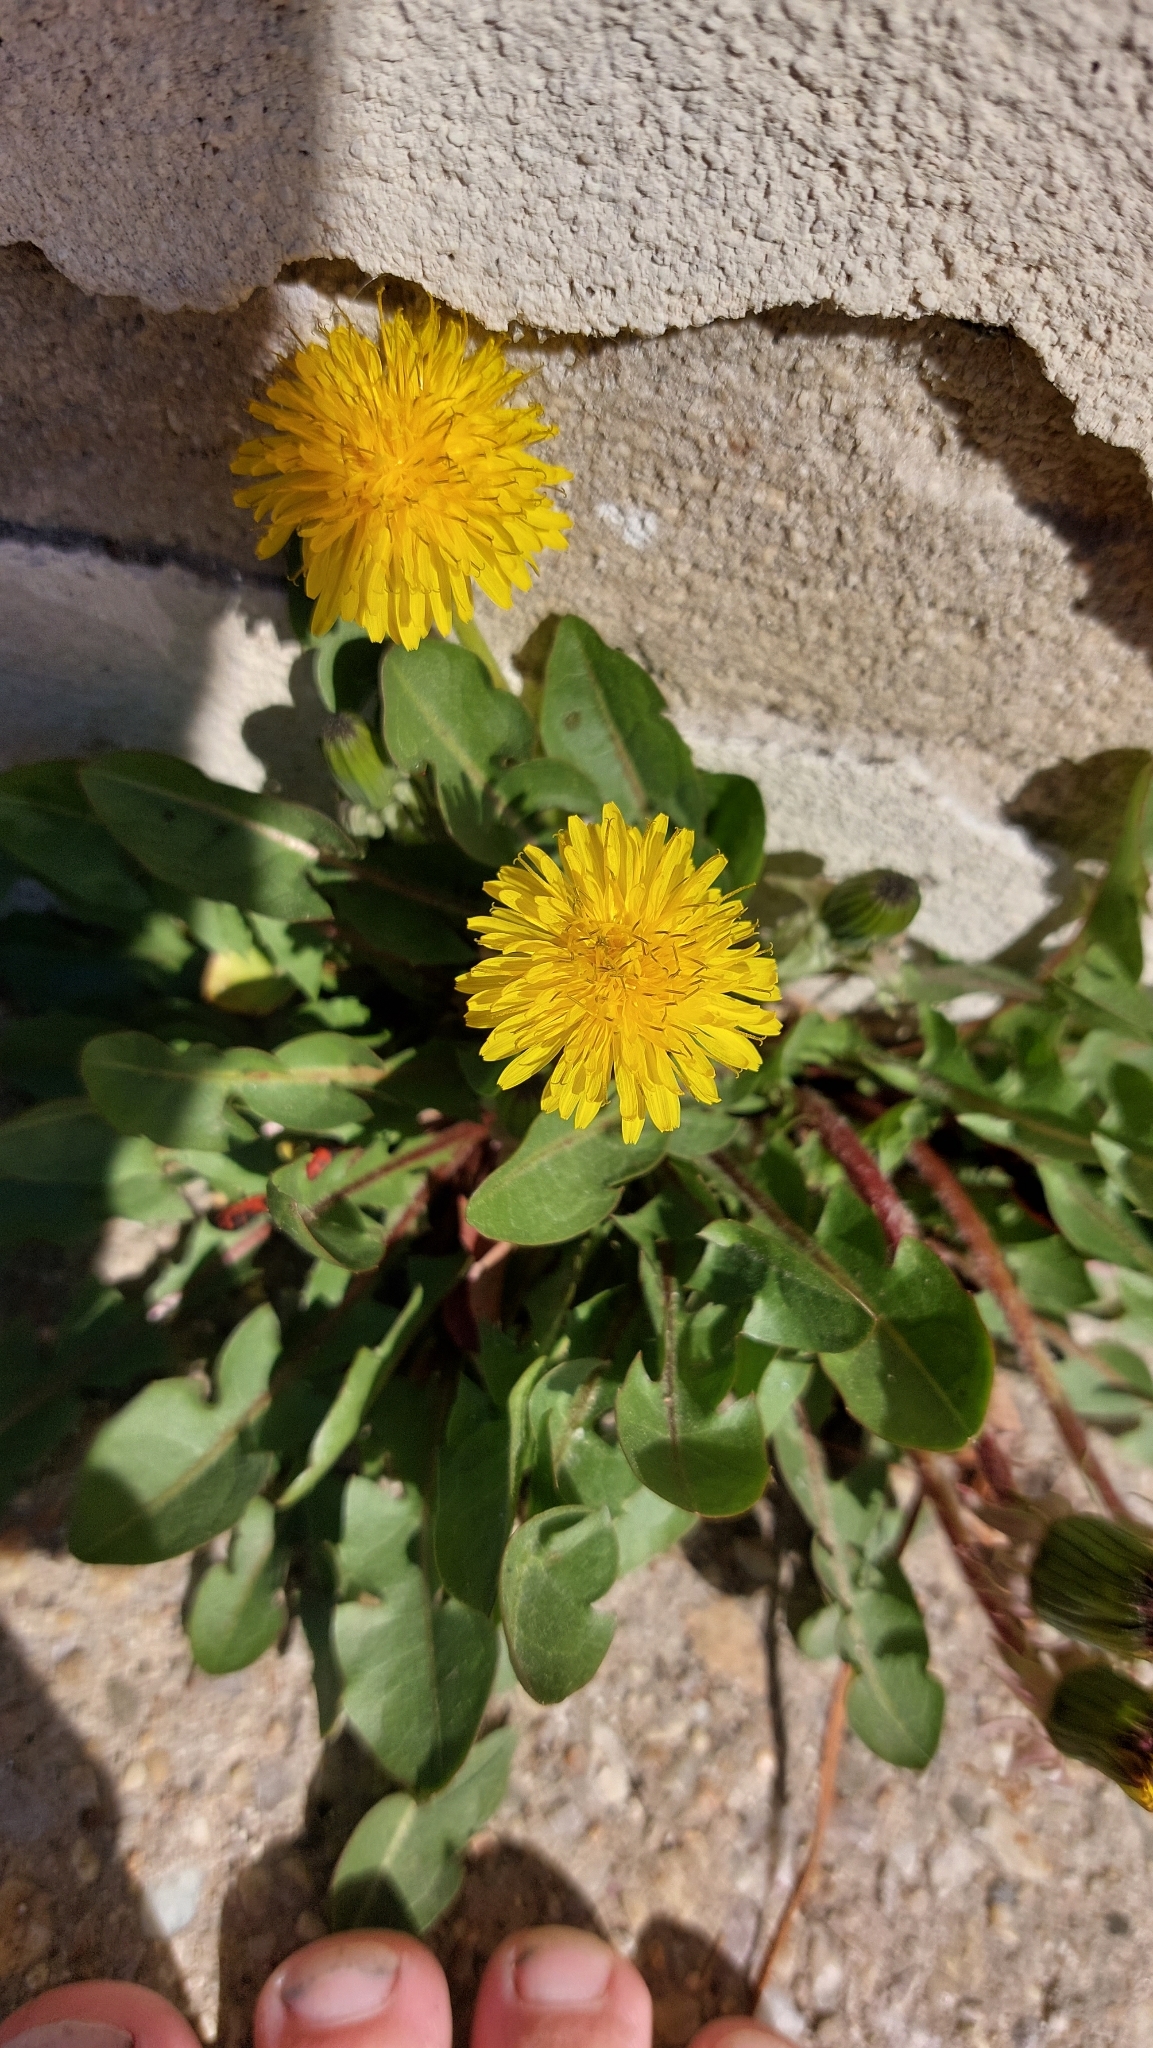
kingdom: Plantae
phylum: Tracheophyta
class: Magnoliopsida
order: Asterales
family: Asteraceae
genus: Taraxacum
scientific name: Taraxacum
